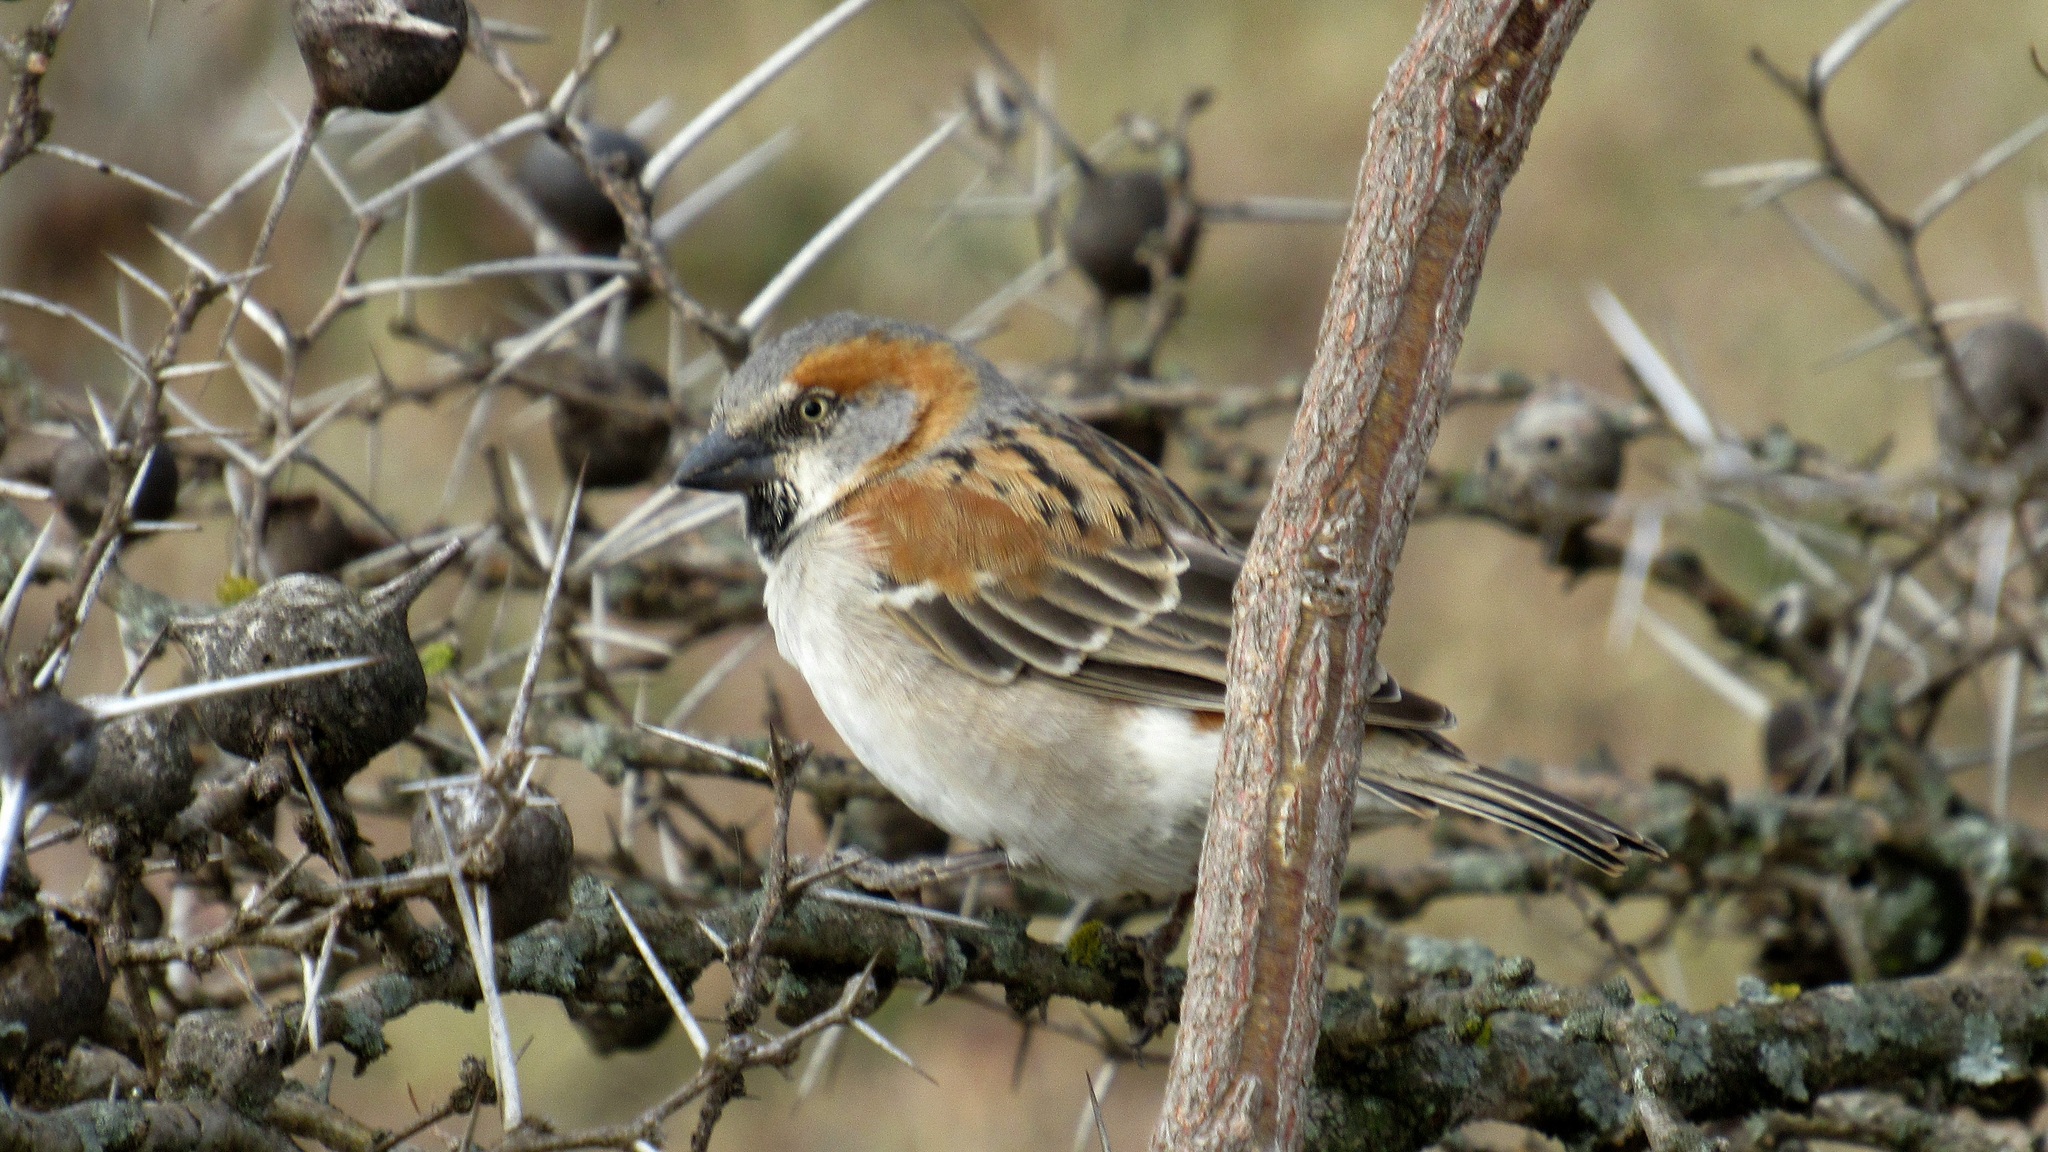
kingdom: Animalia
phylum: Chordata
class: Aves
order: Passeriformes
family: Passeridae
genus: Passer
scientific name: Passer rufocinctus
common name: Kenya sparrow
